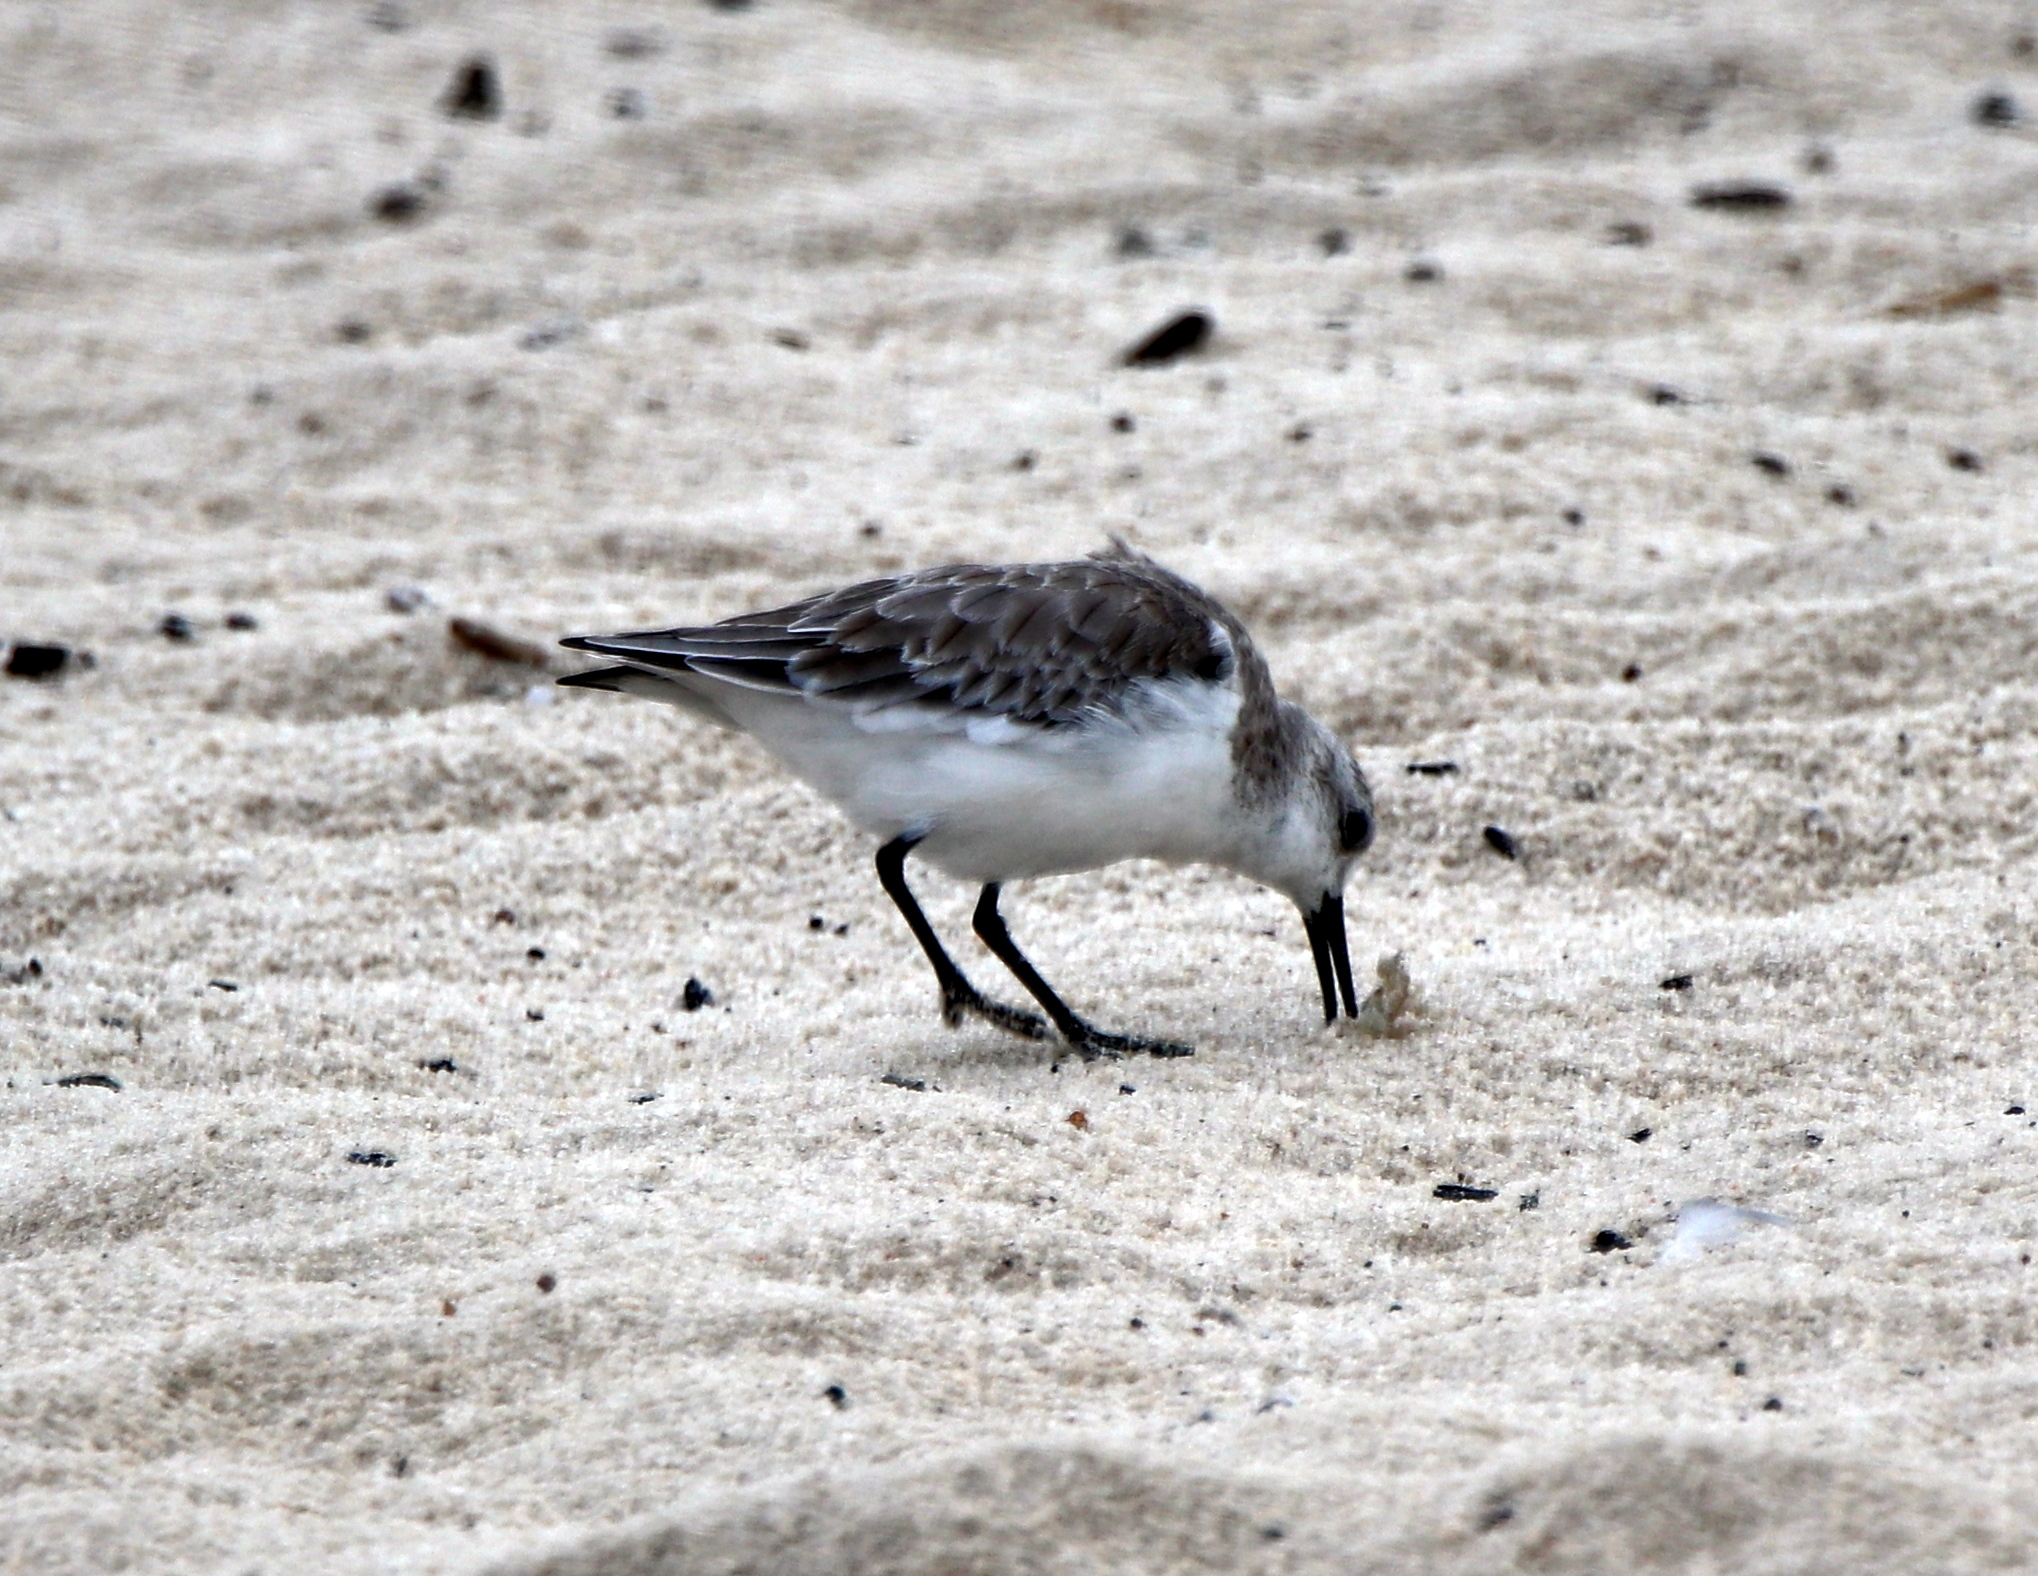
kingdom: Animalia
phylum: Chordata
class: Aves
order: Charadriiformes
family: Scolopacidae
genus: Calidris
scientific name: Calidris alba
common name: Sanderling
